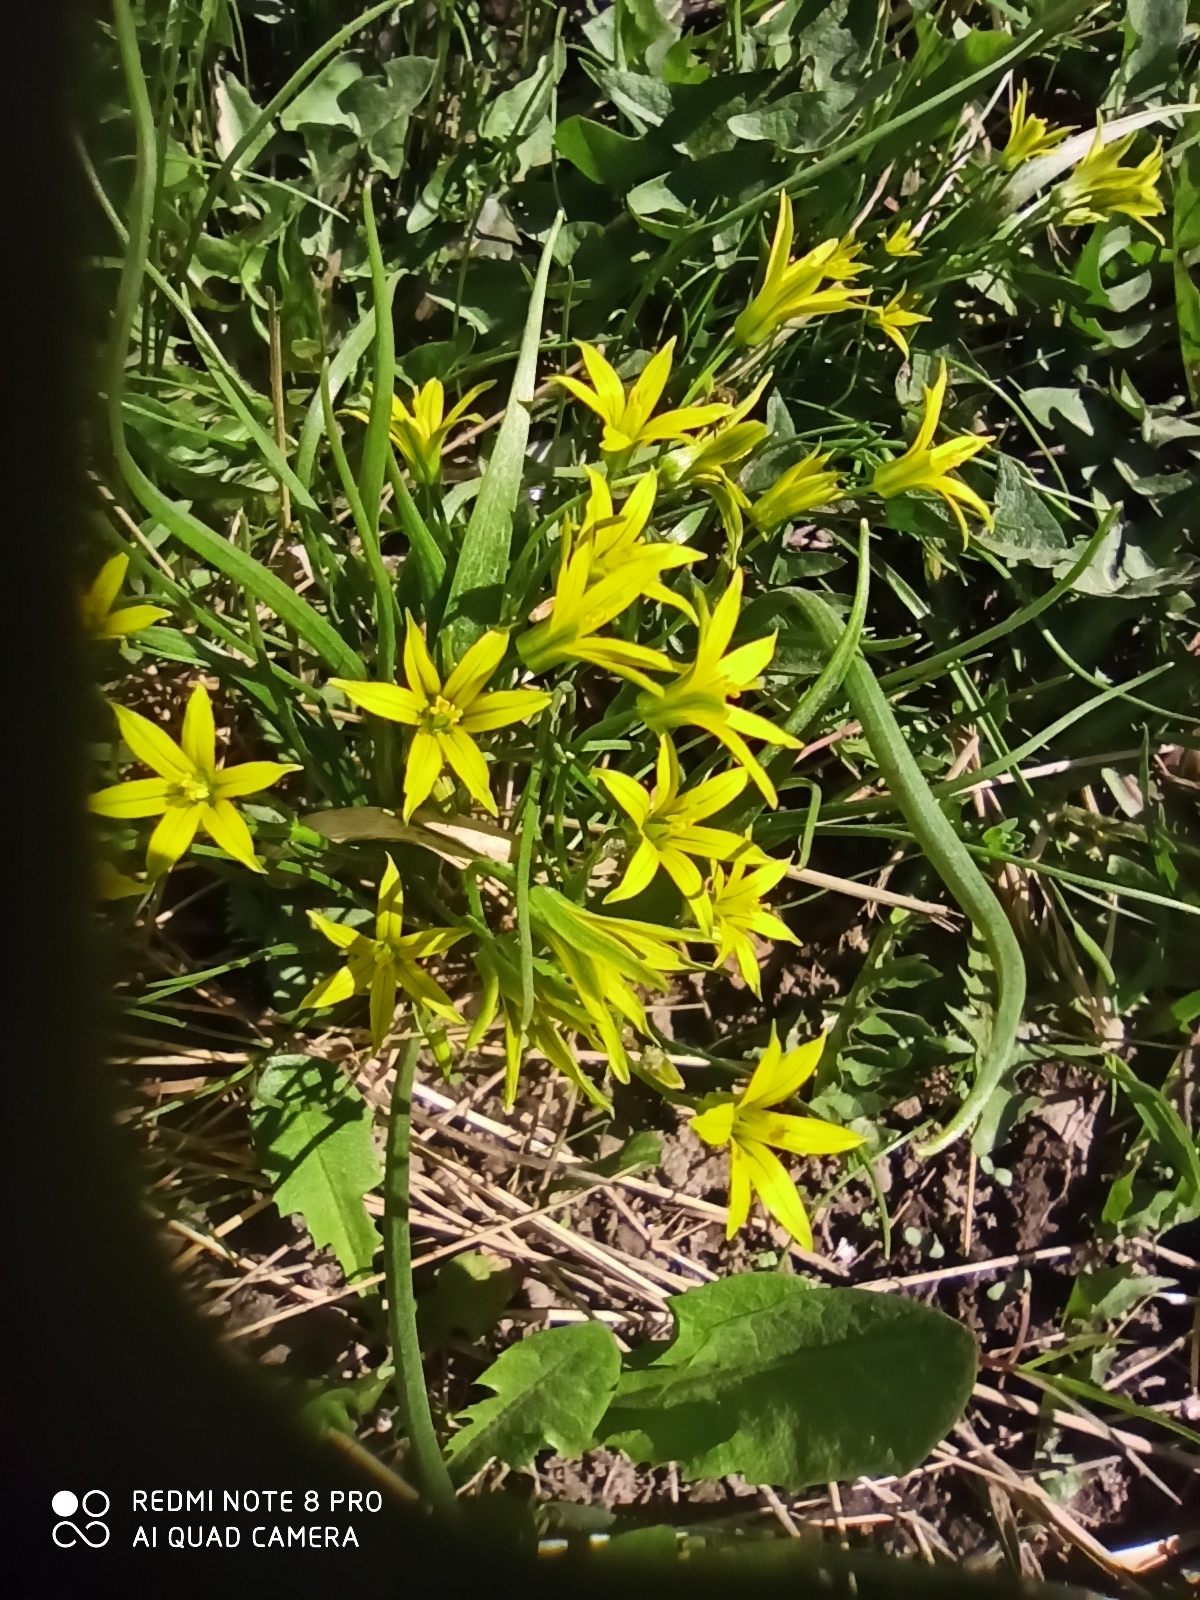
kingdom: Plantae
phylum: Tracheophyta
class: Liliopsida
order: Liliales
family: Liliaceae
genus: Gagea
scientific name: Gagea minima
